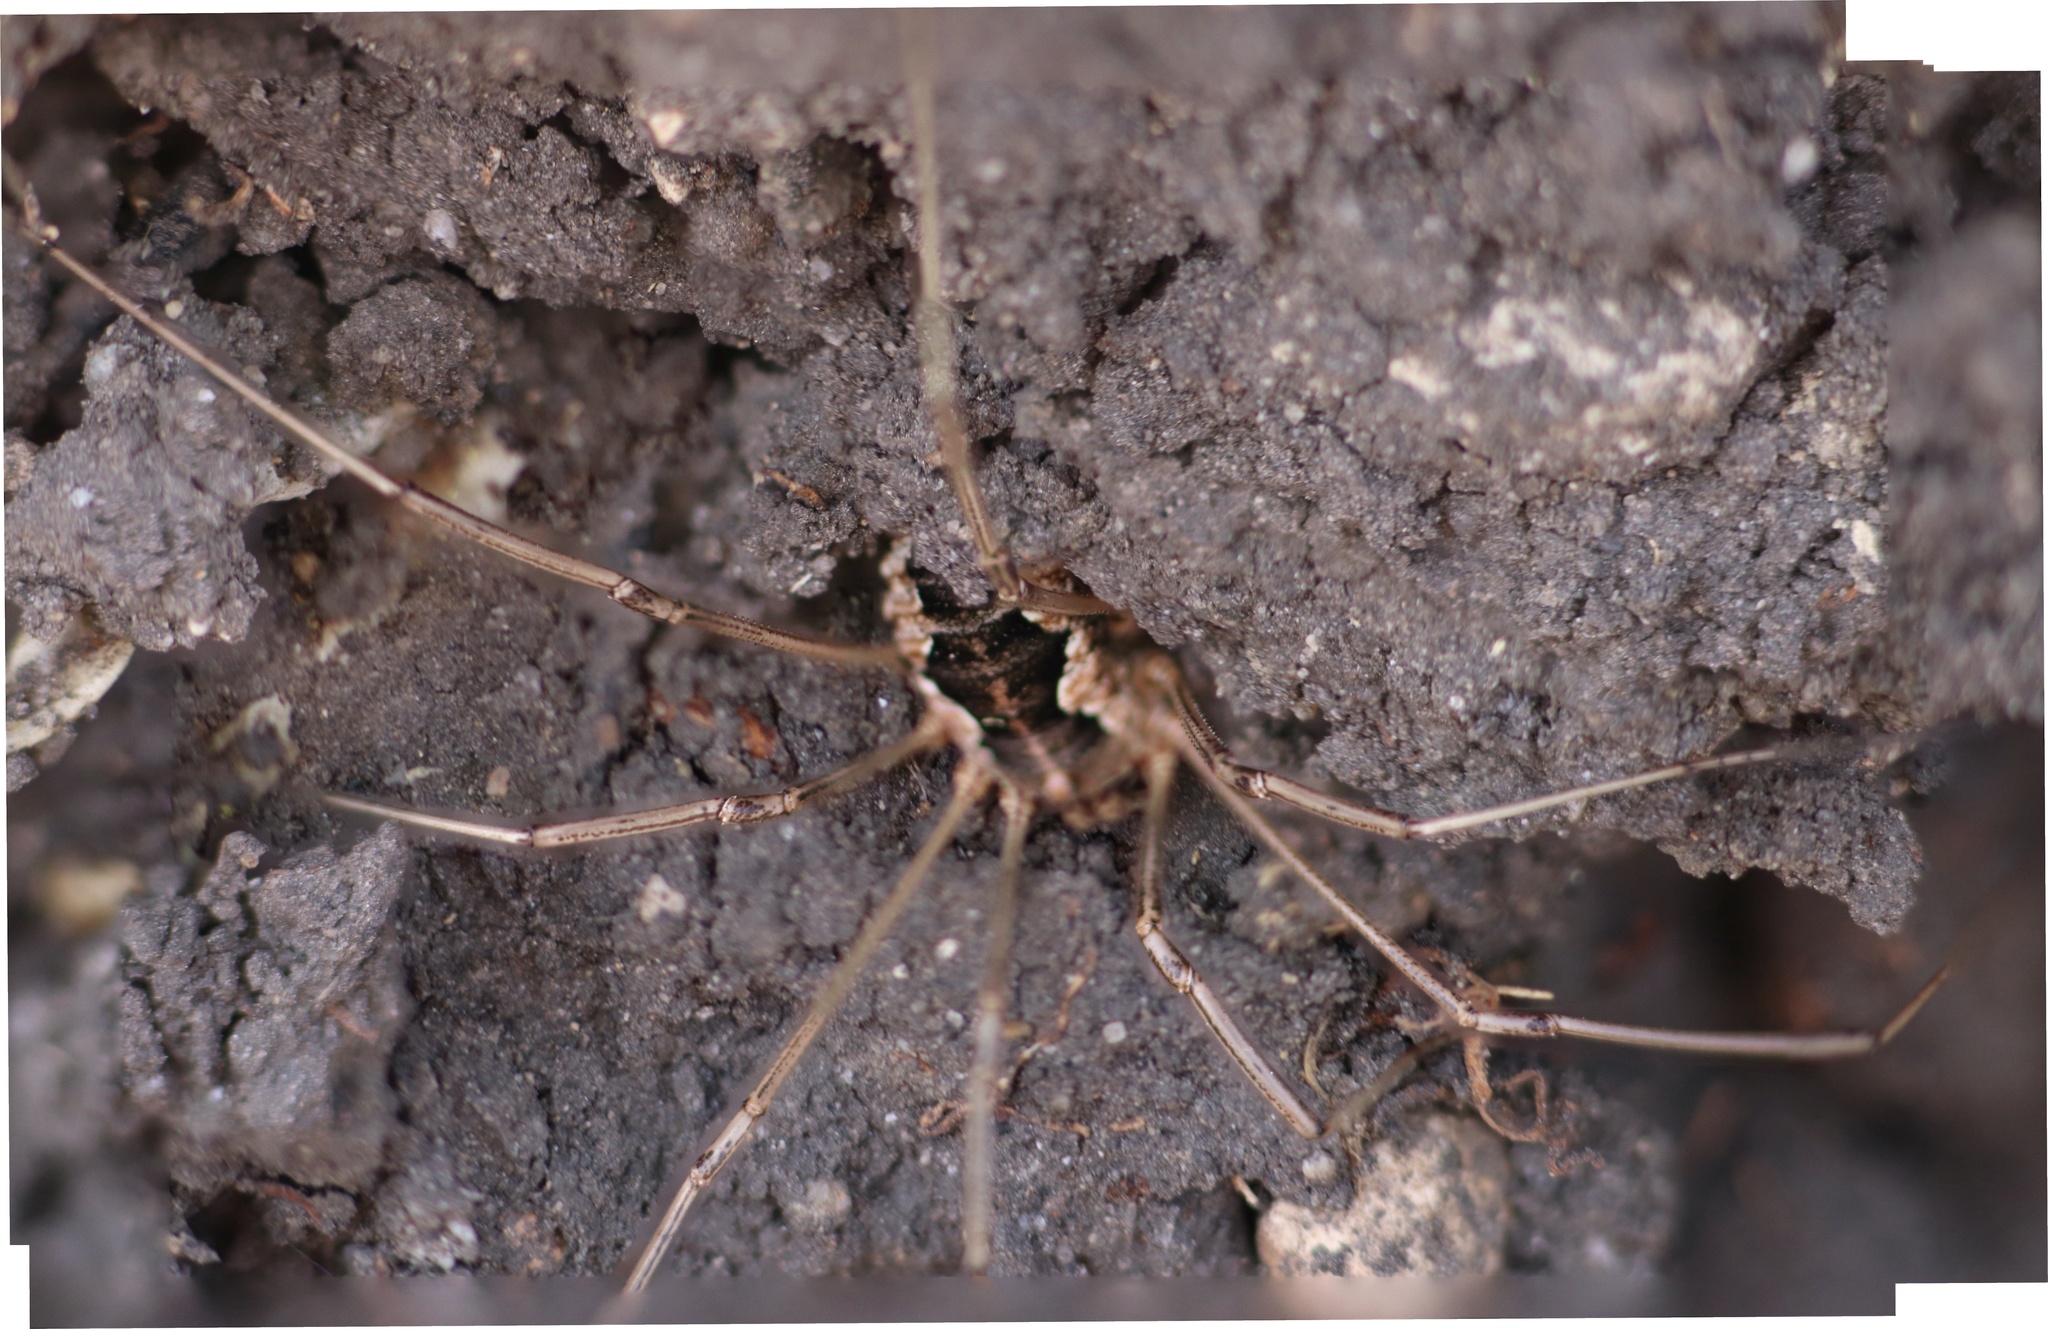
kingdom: Animalia
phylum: Arthropoda
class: Arachnida
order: Opiliones
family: Phalangiidae
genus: Phalangium
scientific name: Phalangium opilio
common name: Daddy longleg
